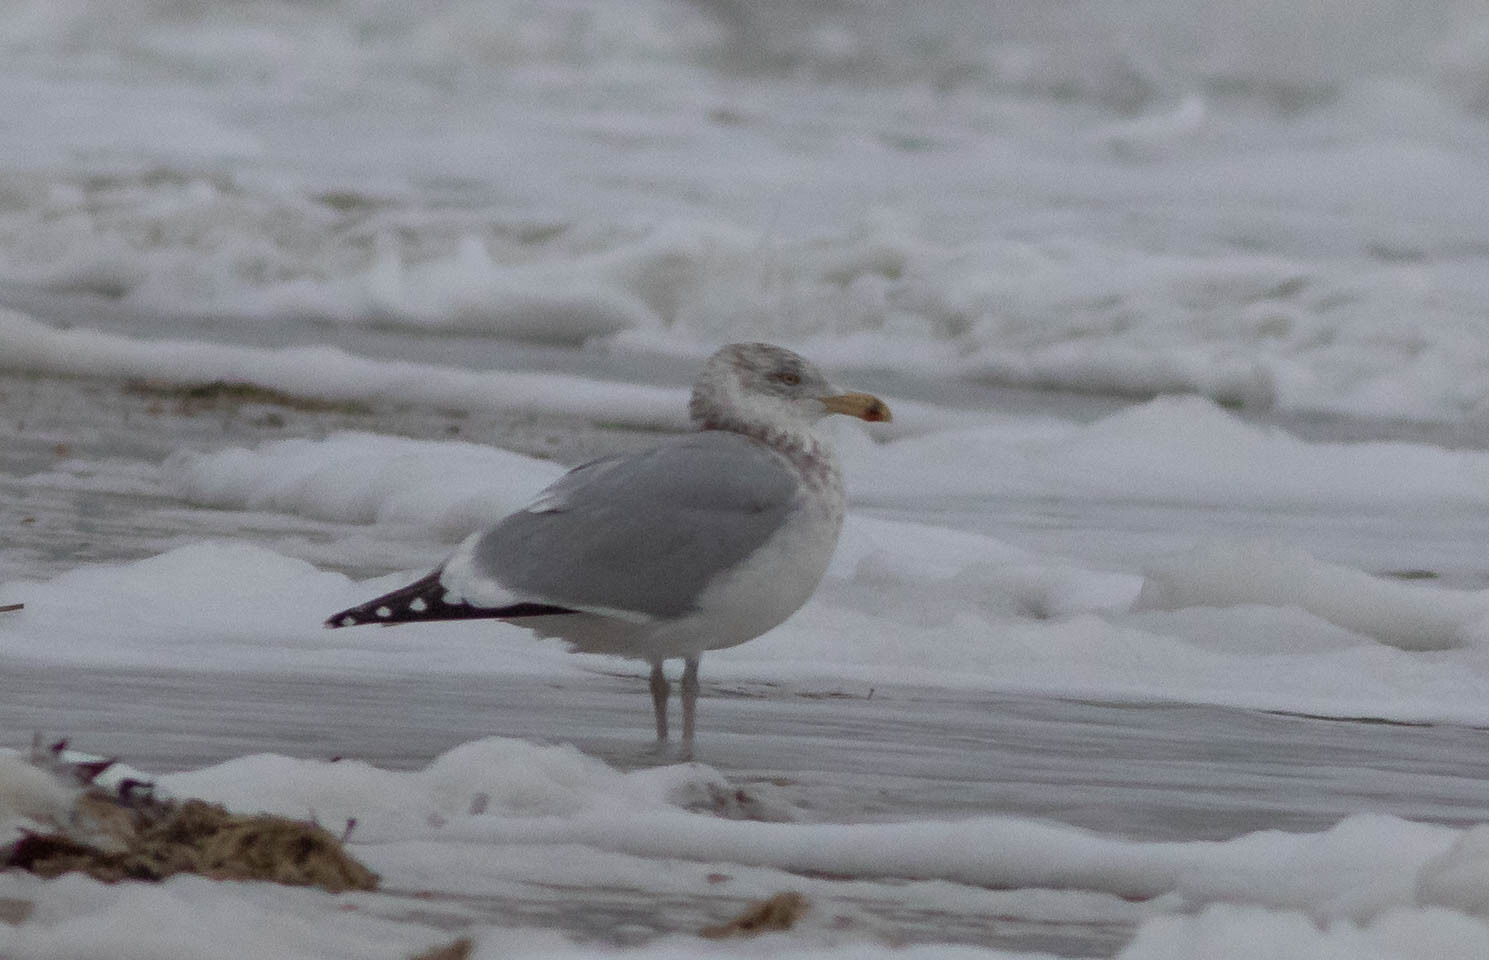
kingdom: Animalia
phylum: Chordata
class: Aves
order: Charadriiformes
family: Laridae
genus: Larus
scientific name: Larus argentatus
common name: Herring gull
